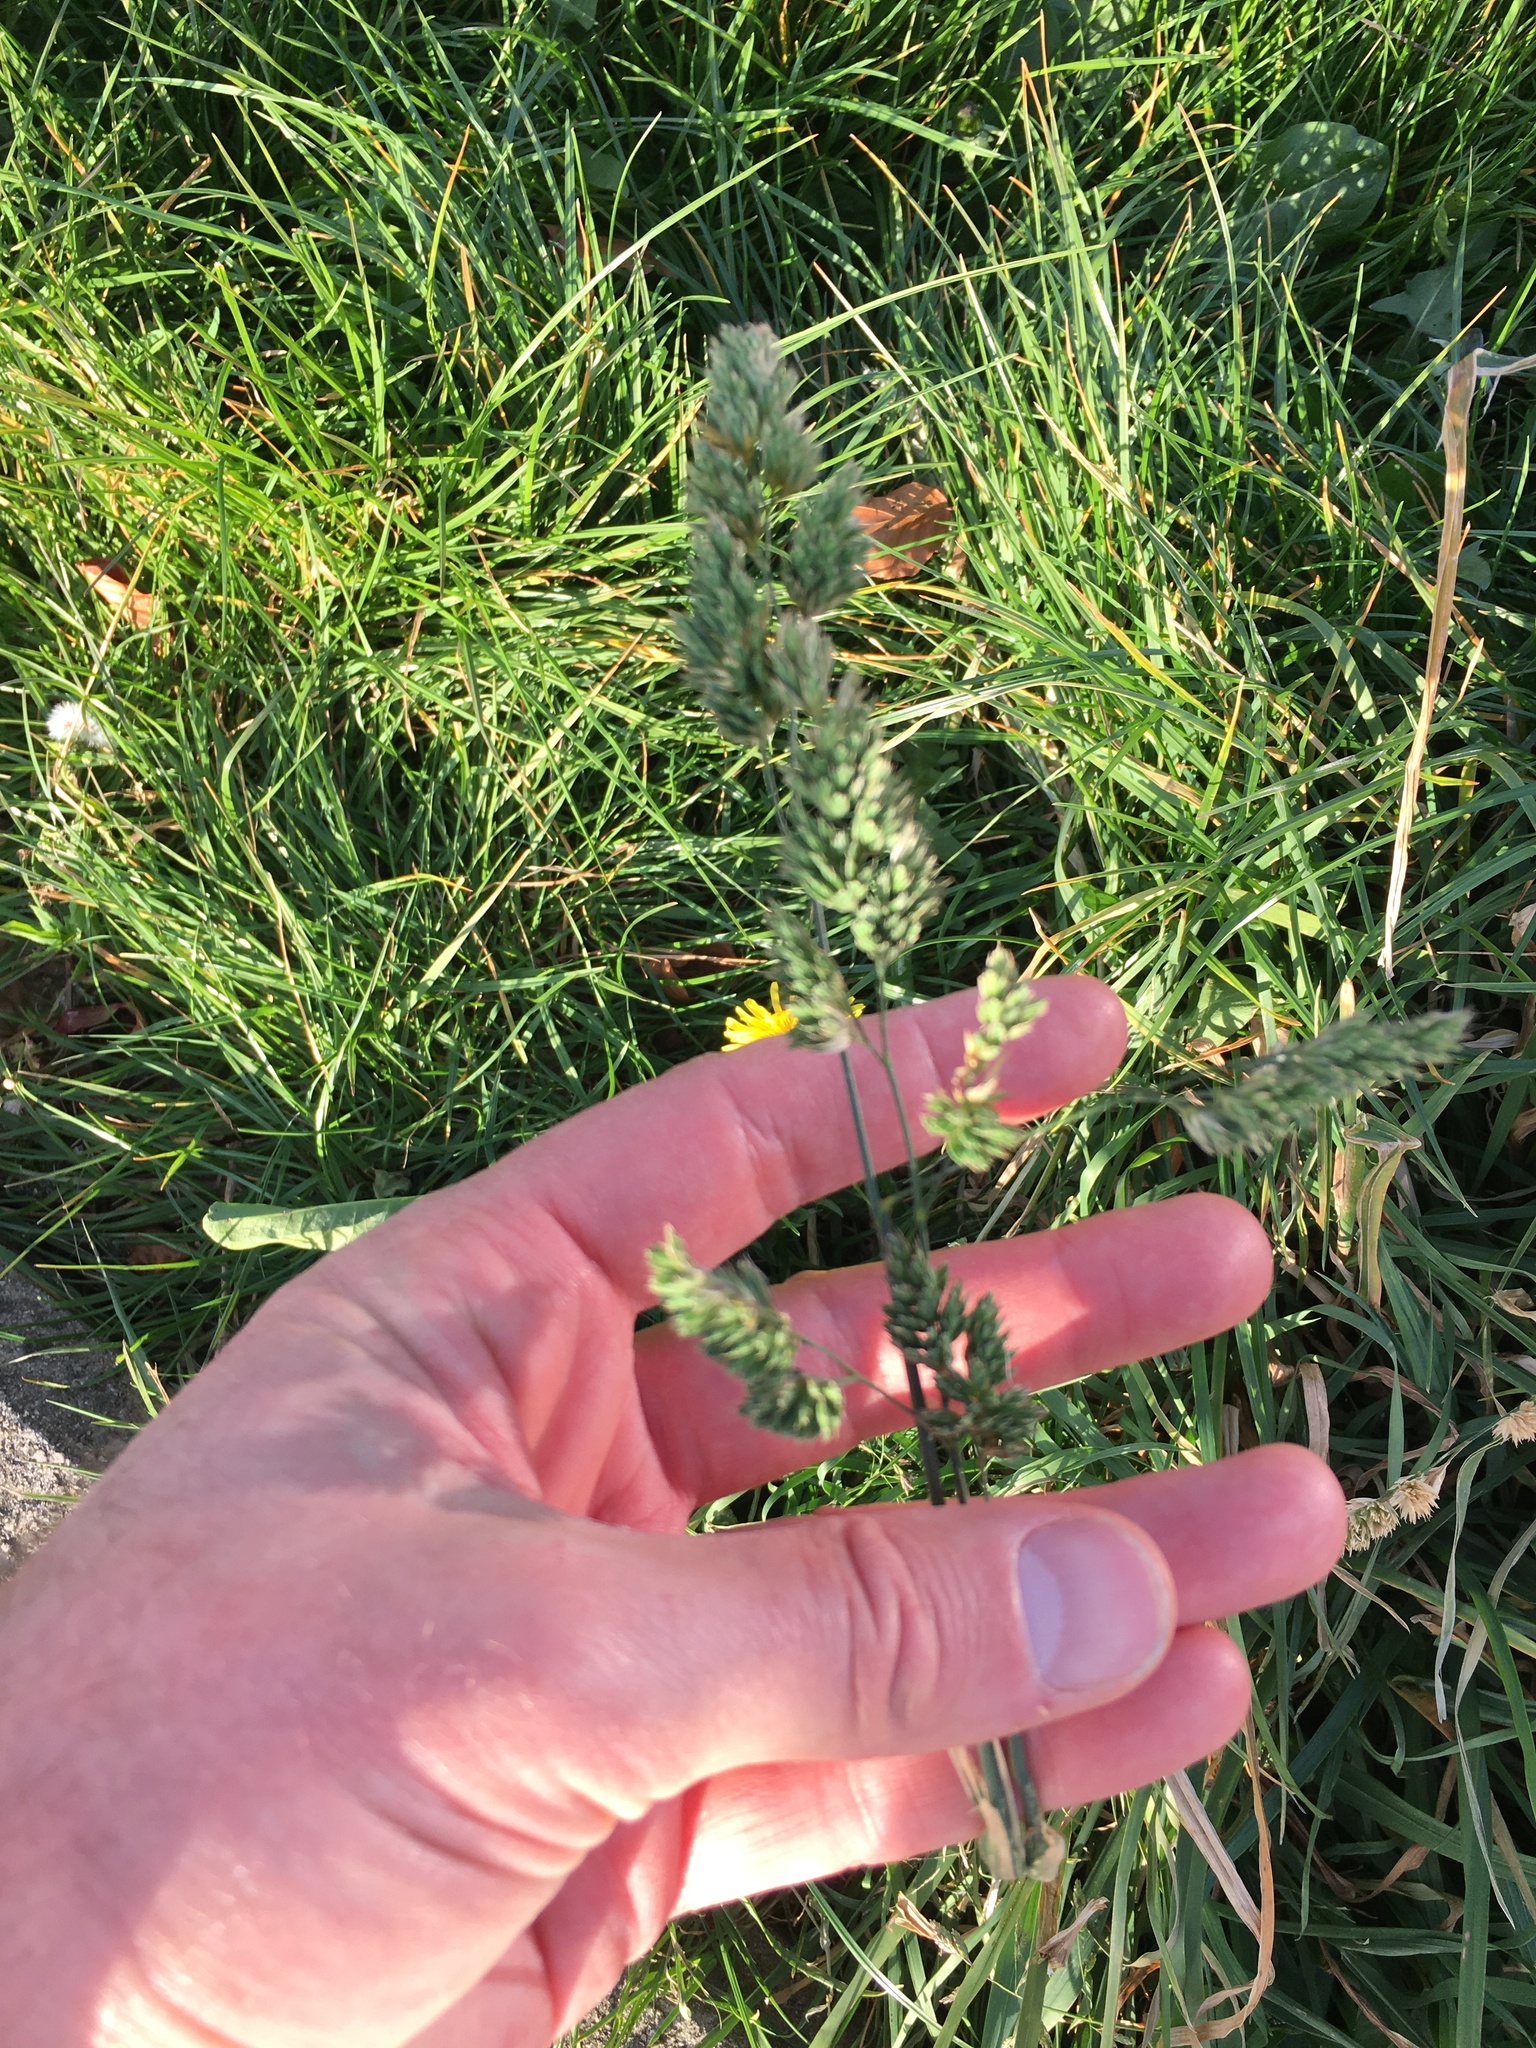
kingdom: Plantae
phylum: Tracheophyta
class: Liliopsida
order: Poales
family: Poaceae
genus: Dactylis
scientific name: Dactylis glomerata
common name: Orchardgrass
